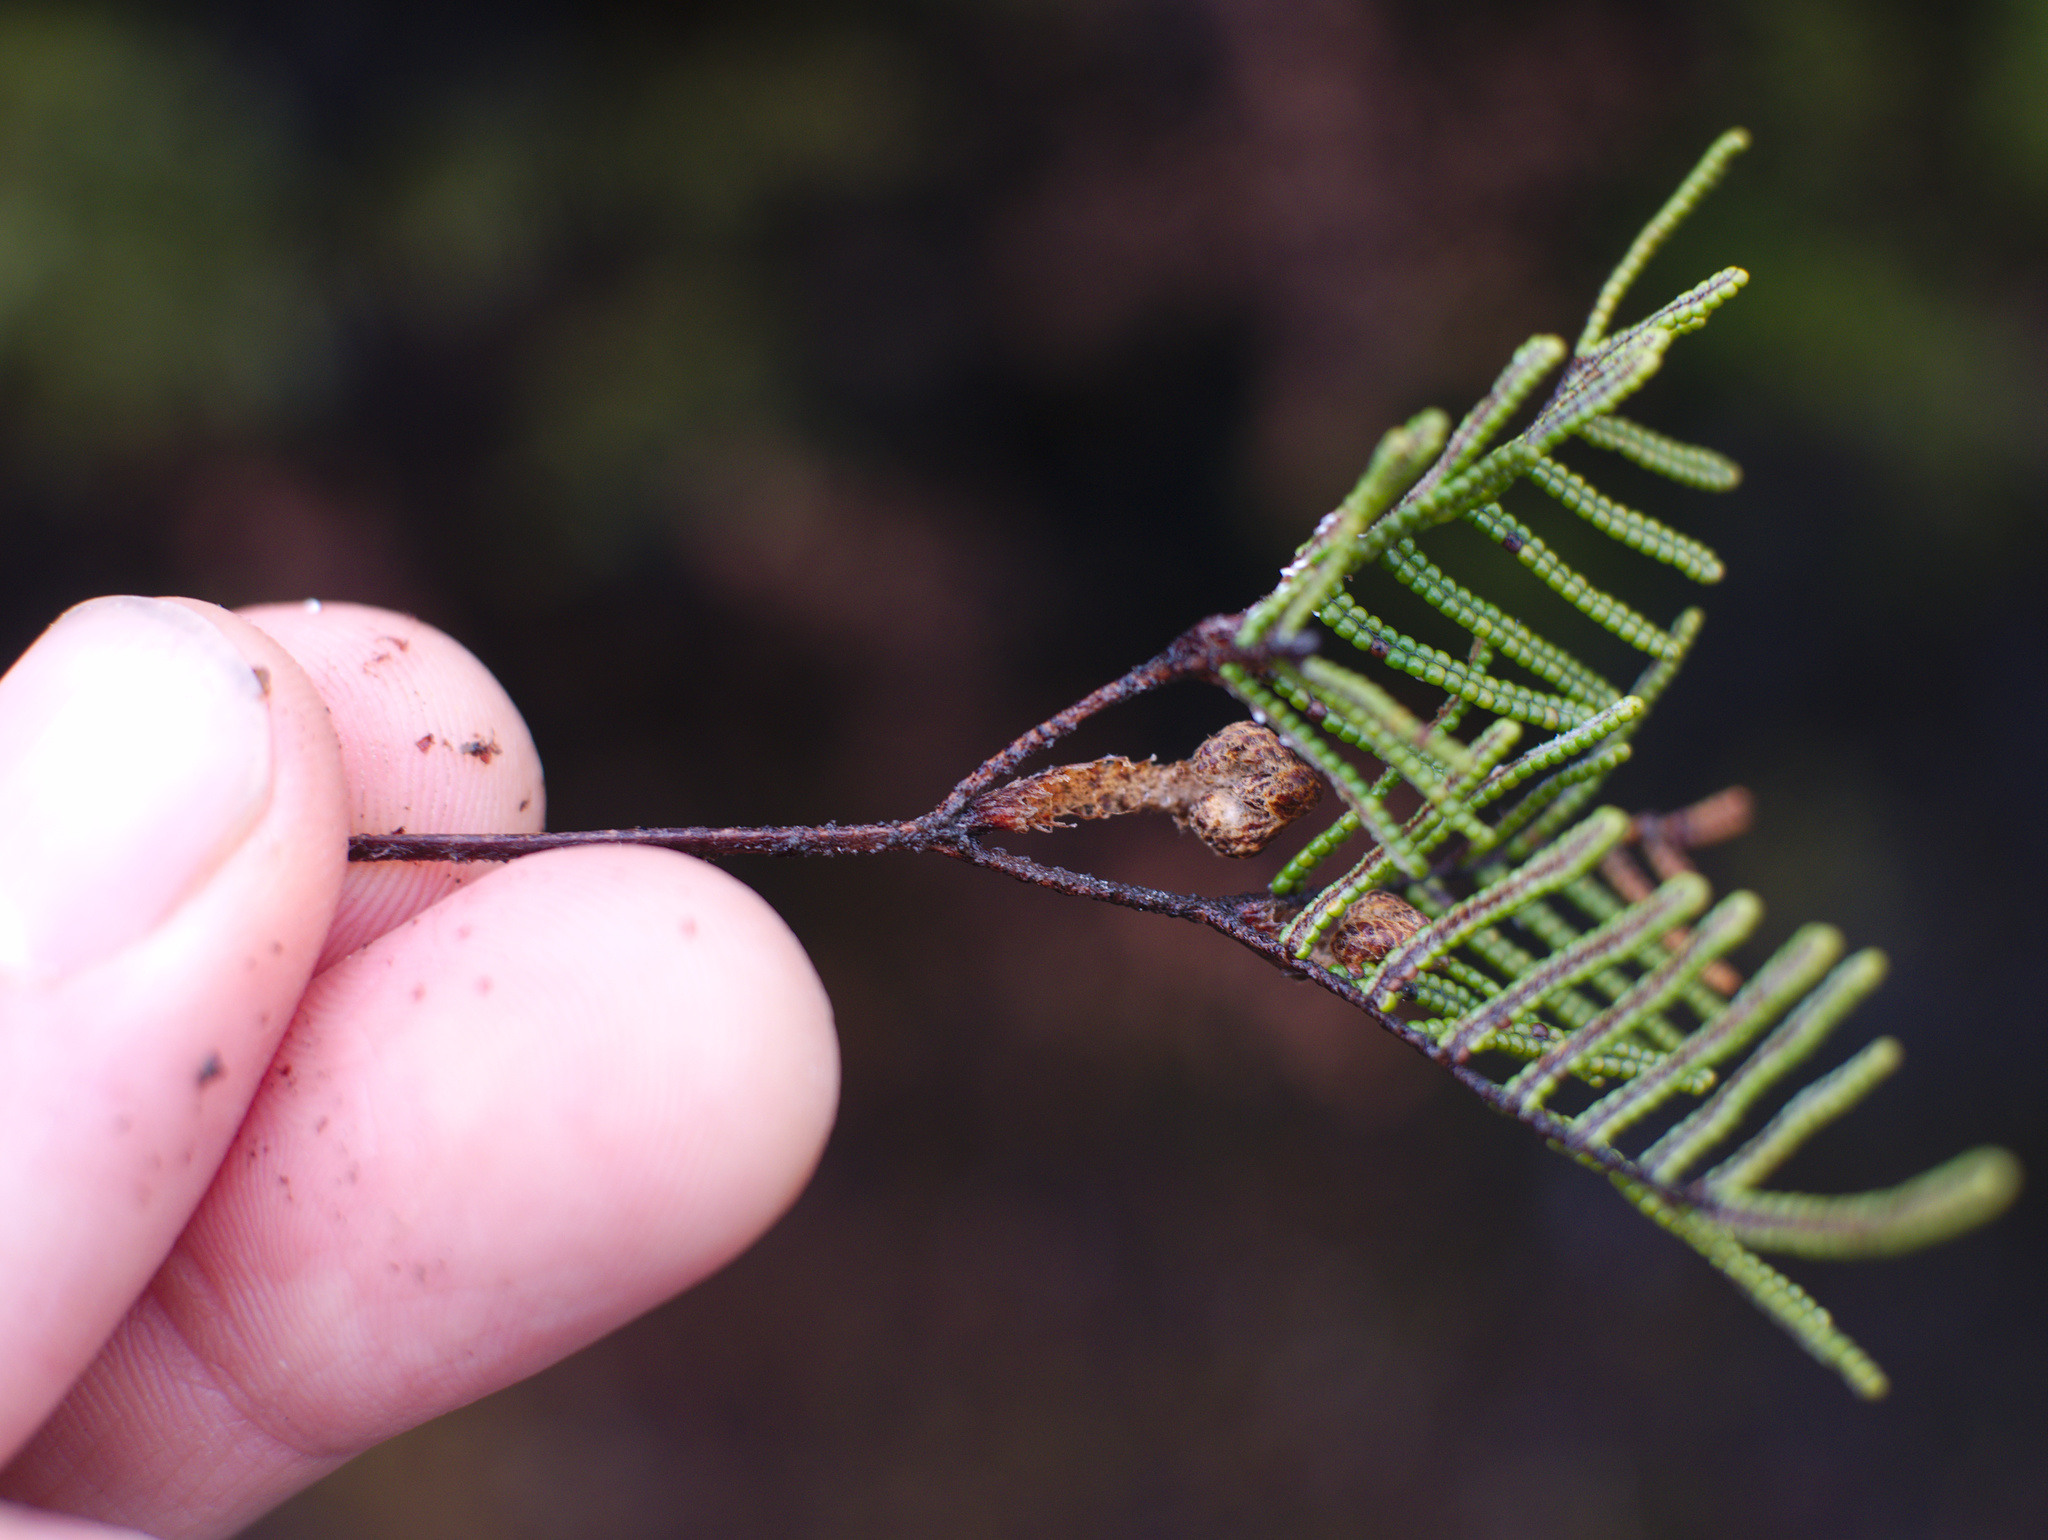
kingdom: Plantae
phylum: Tracheophyta
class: Polypodiopsida
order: Gleicheniales
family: Gleicheniaceae
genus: Gleichenia
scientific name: Gleichenia alpina
